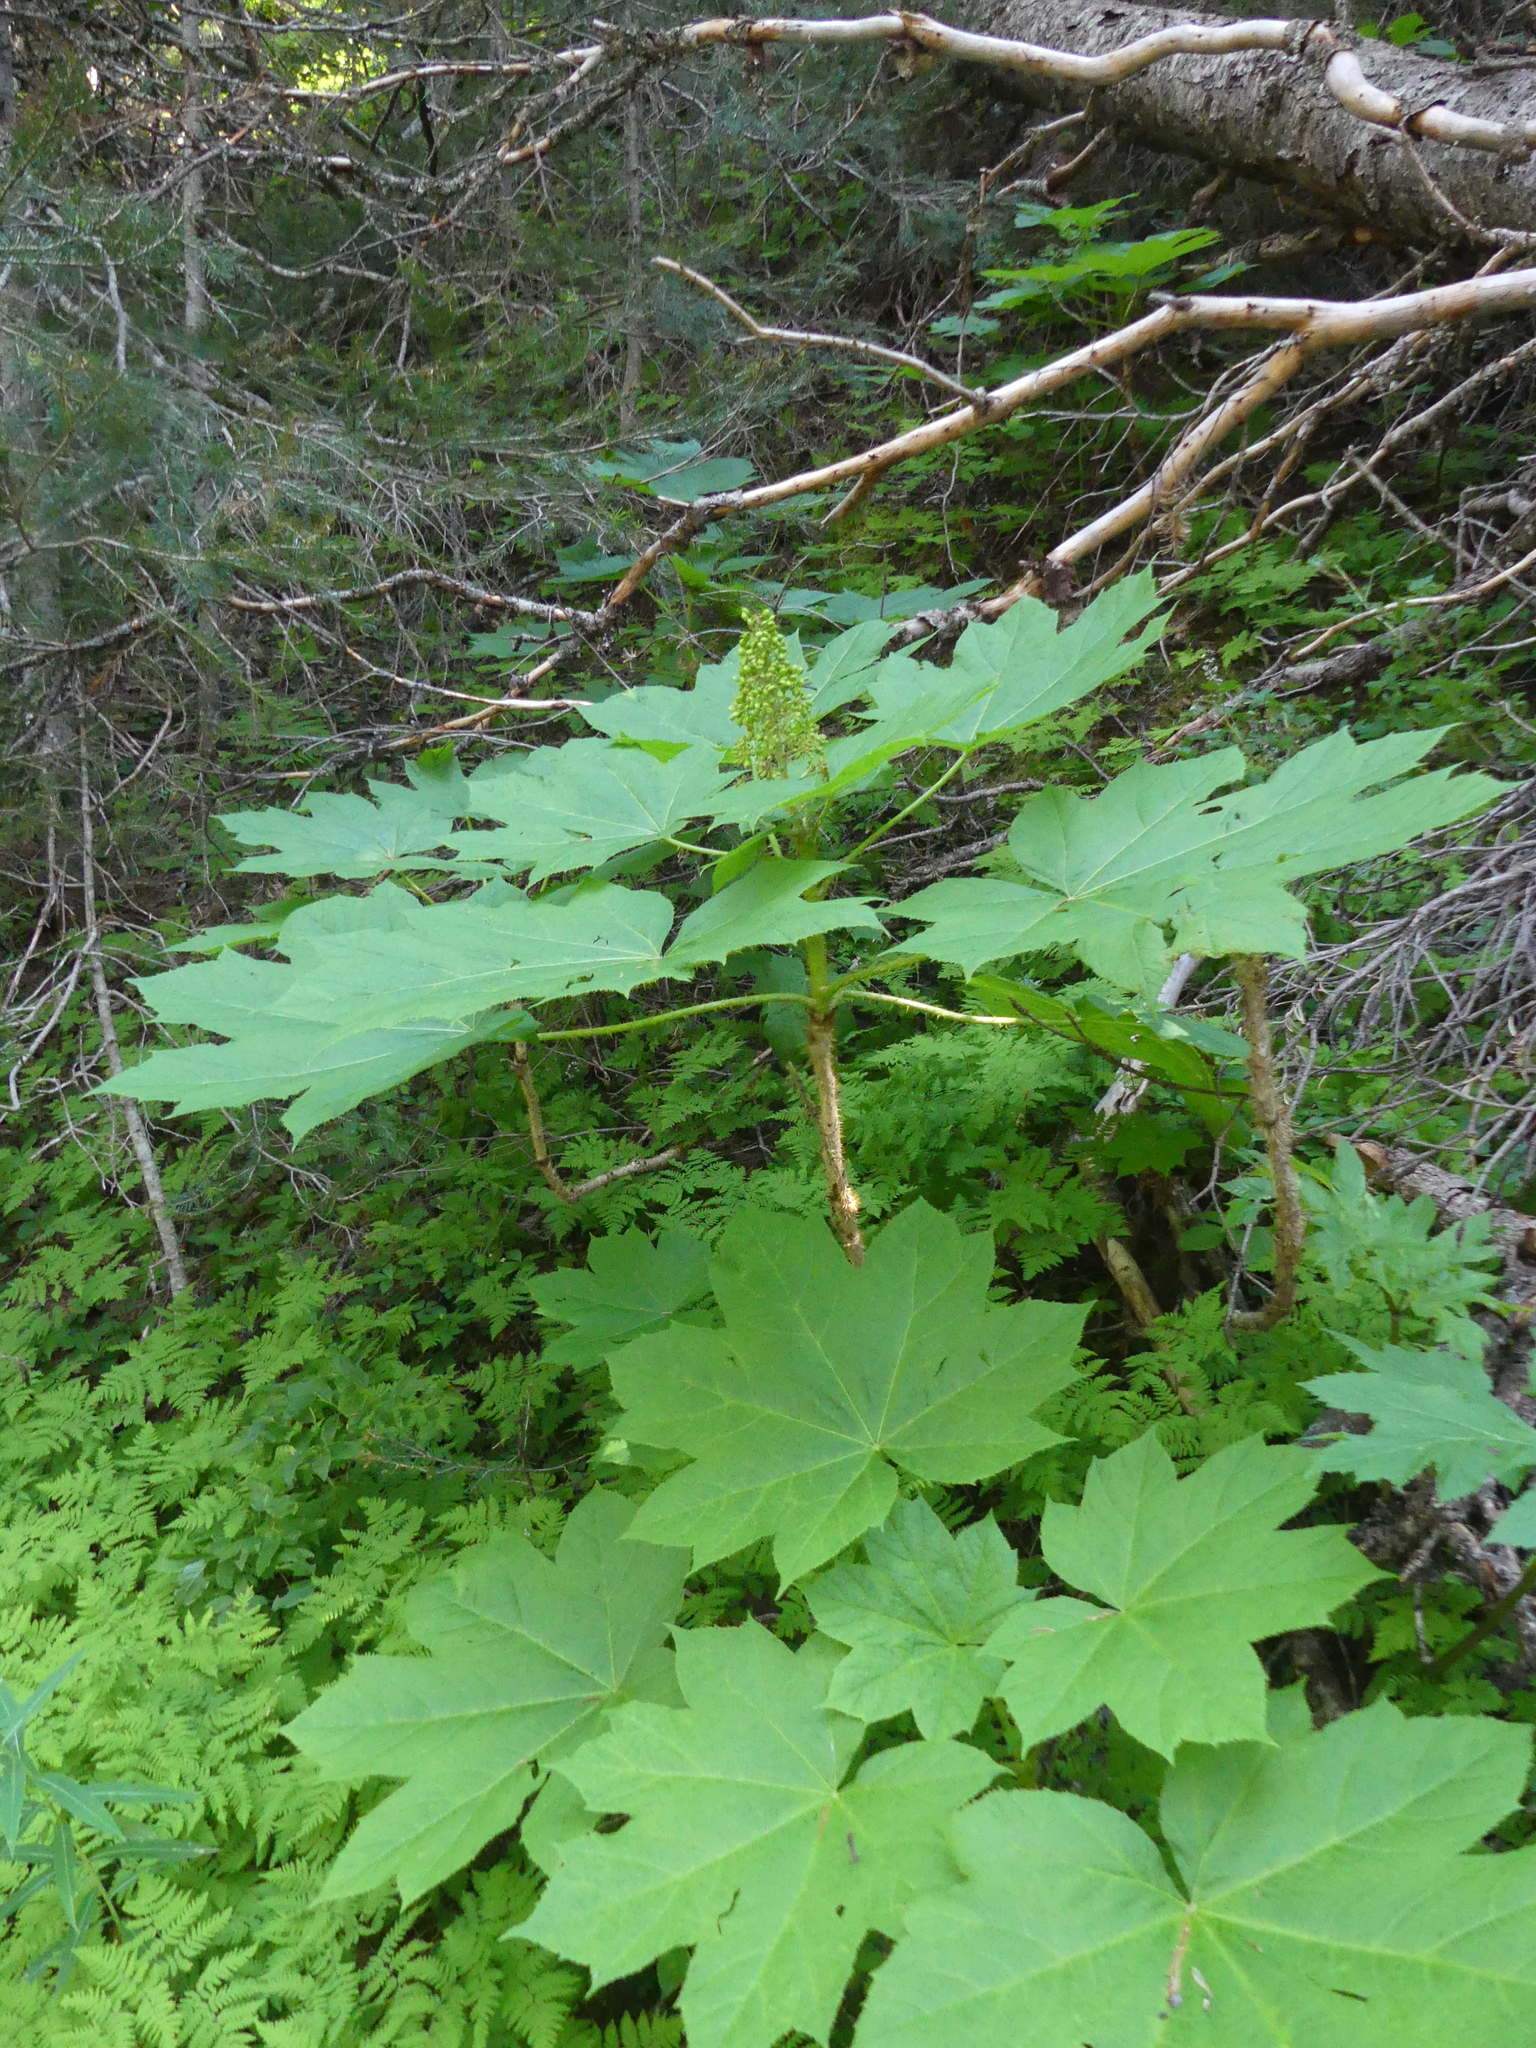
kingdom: Plantae
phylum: Tracheophyta
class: Magnoliopsida
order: Apiales
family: Araliaceae
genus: Oplopanax
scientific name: Oplopanax horridus
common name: Devil's walking-stick
